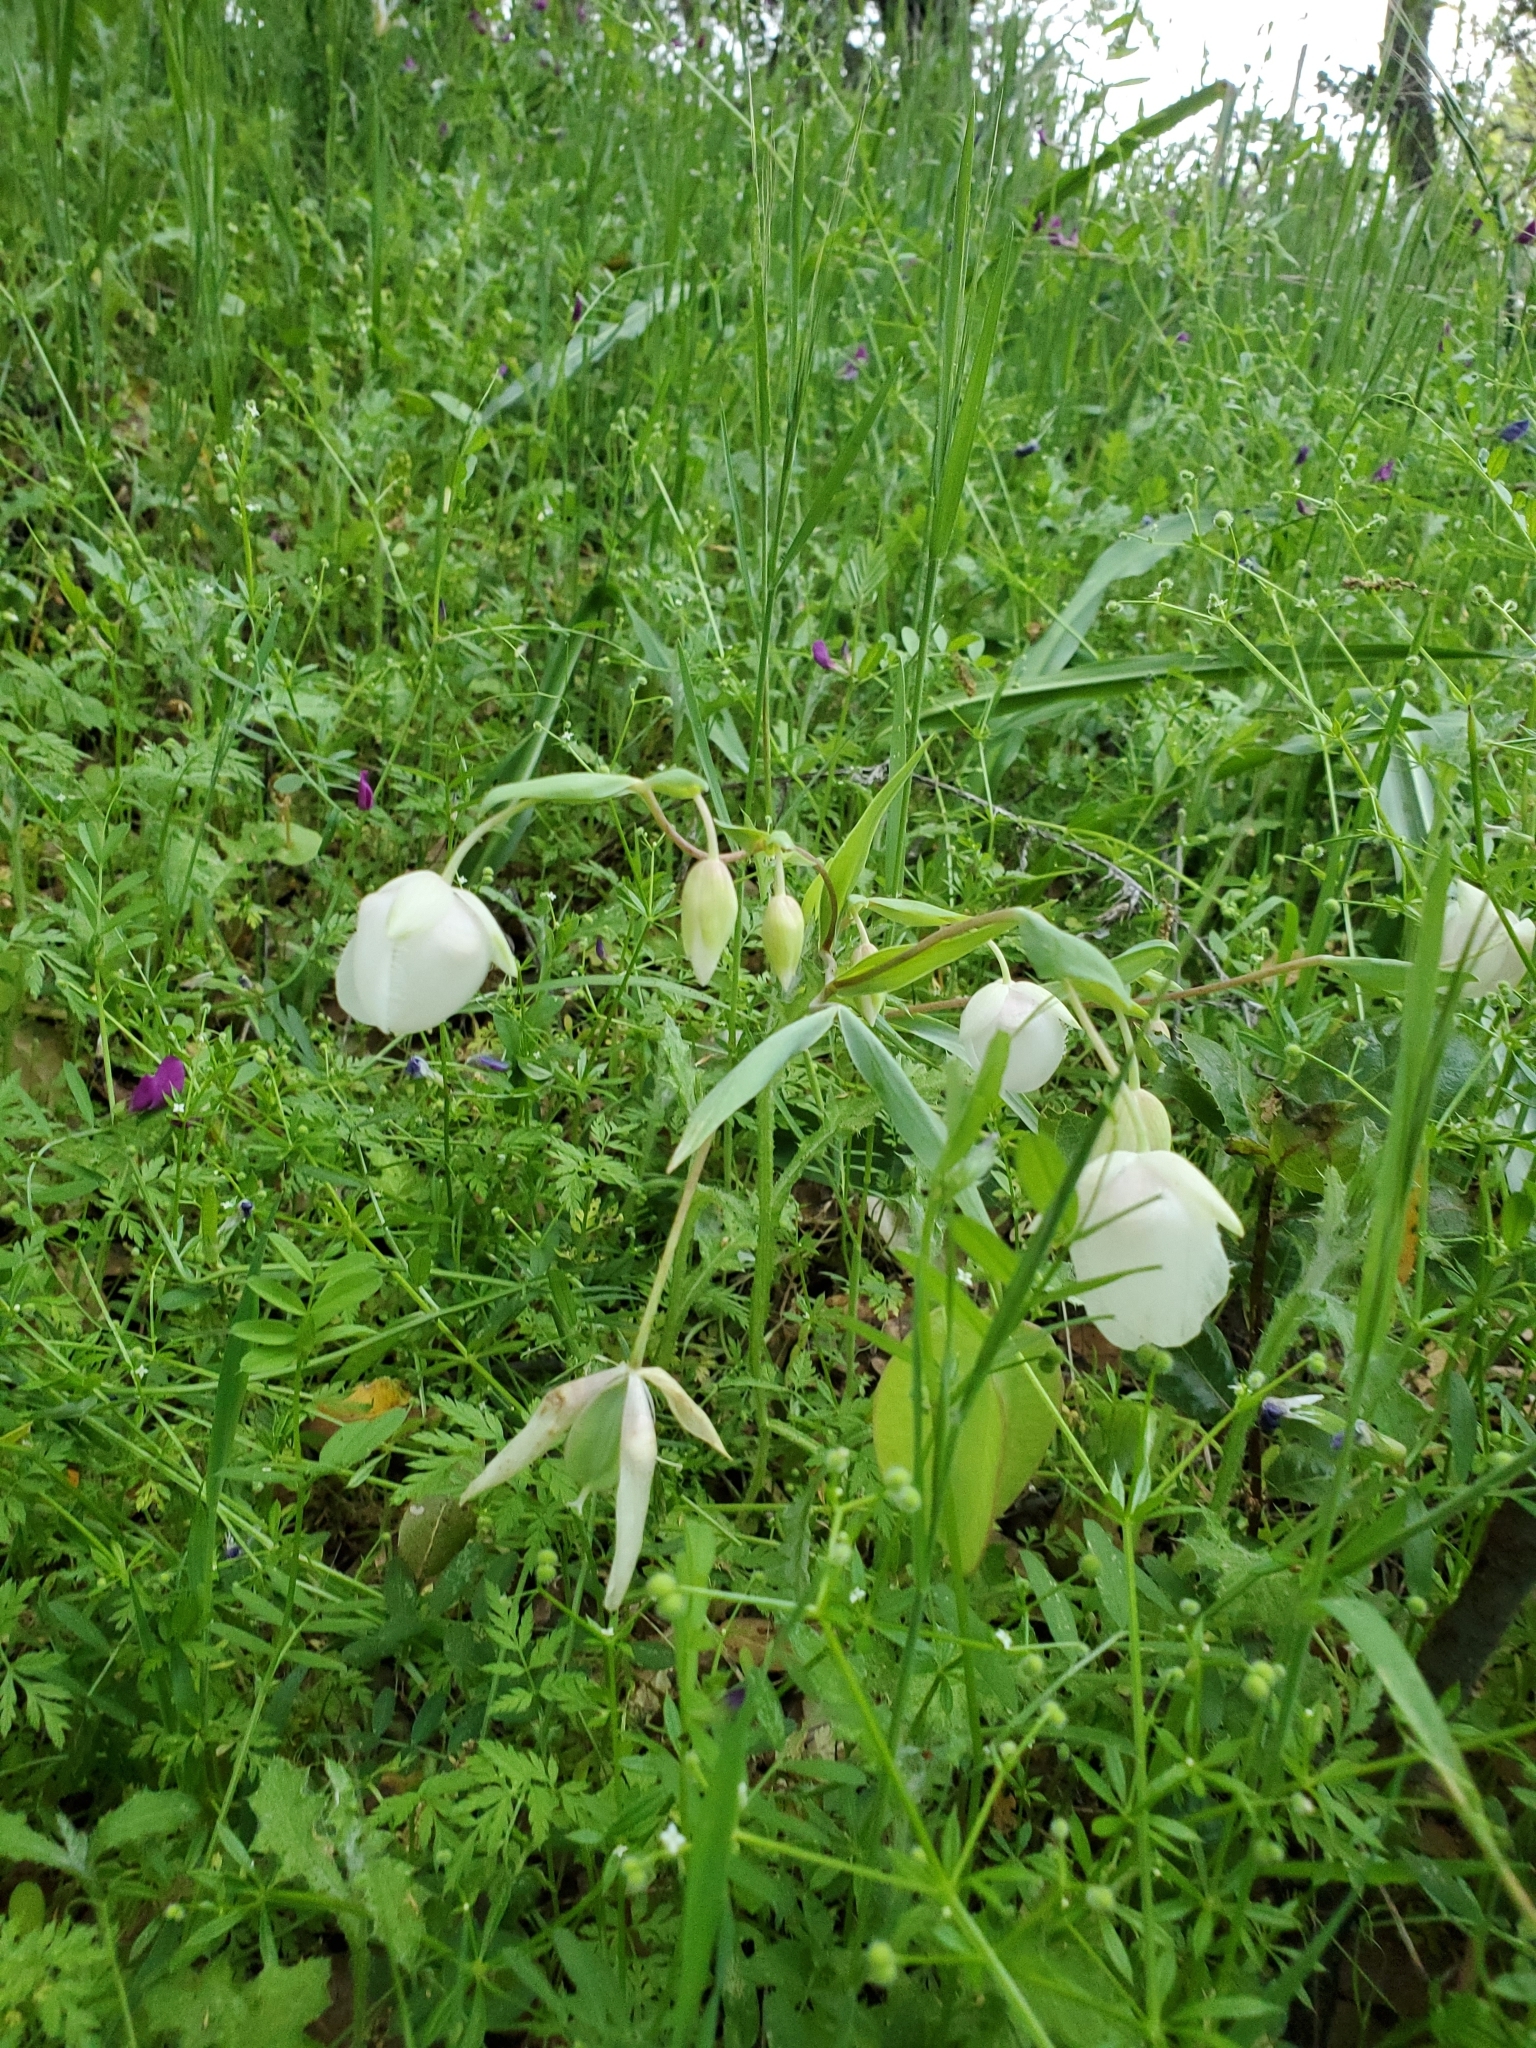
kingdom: Plantae
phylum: Tracheophyta
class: Liliopsida
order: Liliales
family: Liliaceae
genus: Calochortus
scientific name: Calochortus albus
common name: Fairy-lantern
